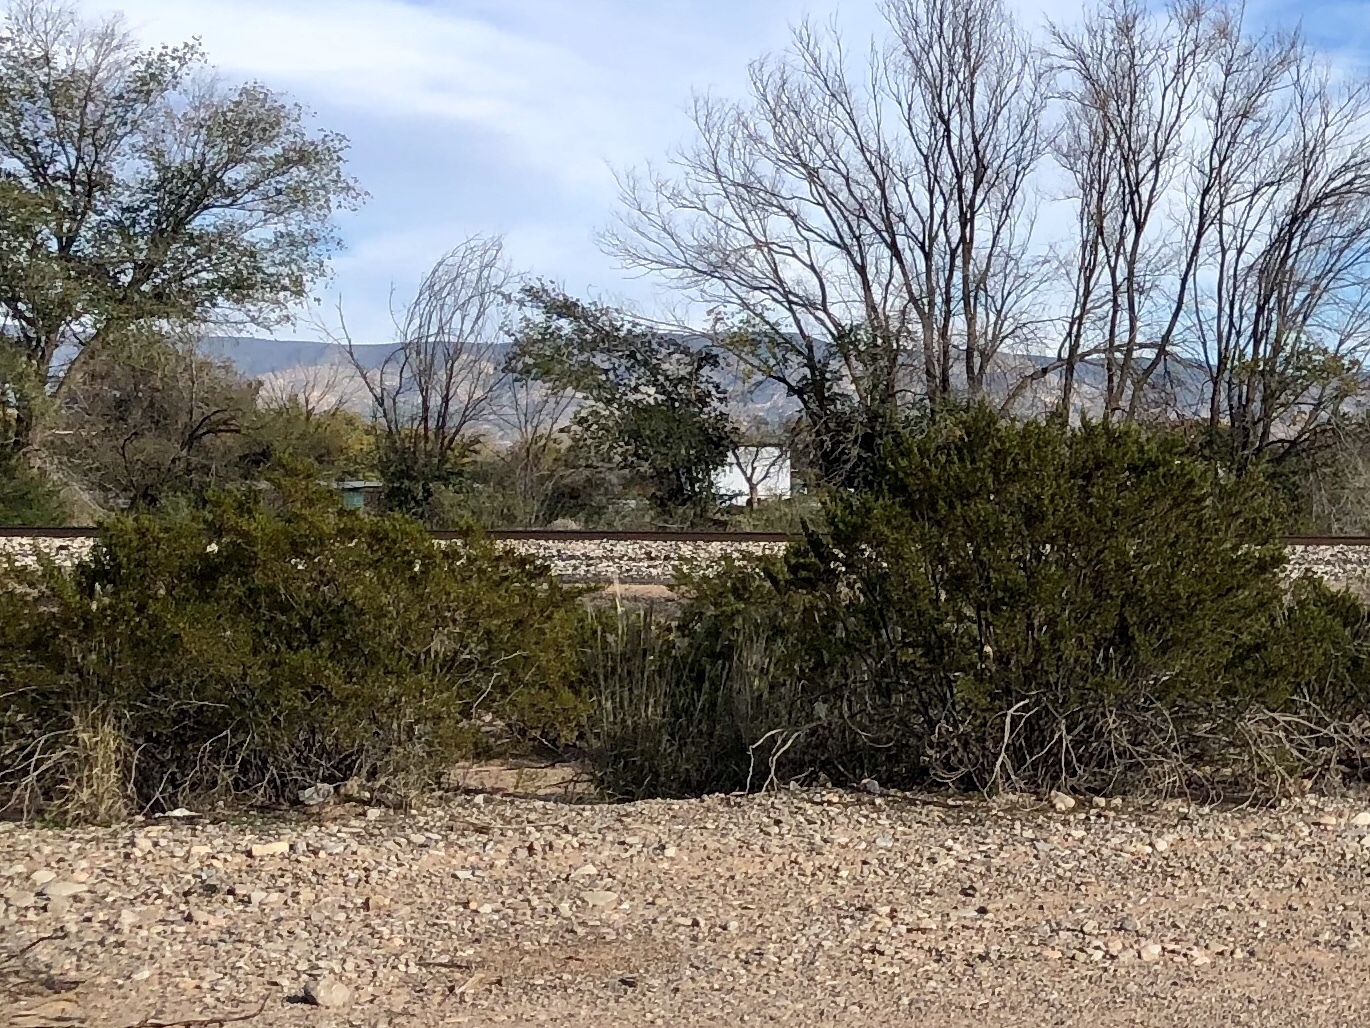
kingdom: Plantae
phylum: Tracheophyta
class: Magnoliopsida
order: Zygophyllales
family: Zygophyllaceae
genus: Larrea
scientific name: Larrea tridentata
